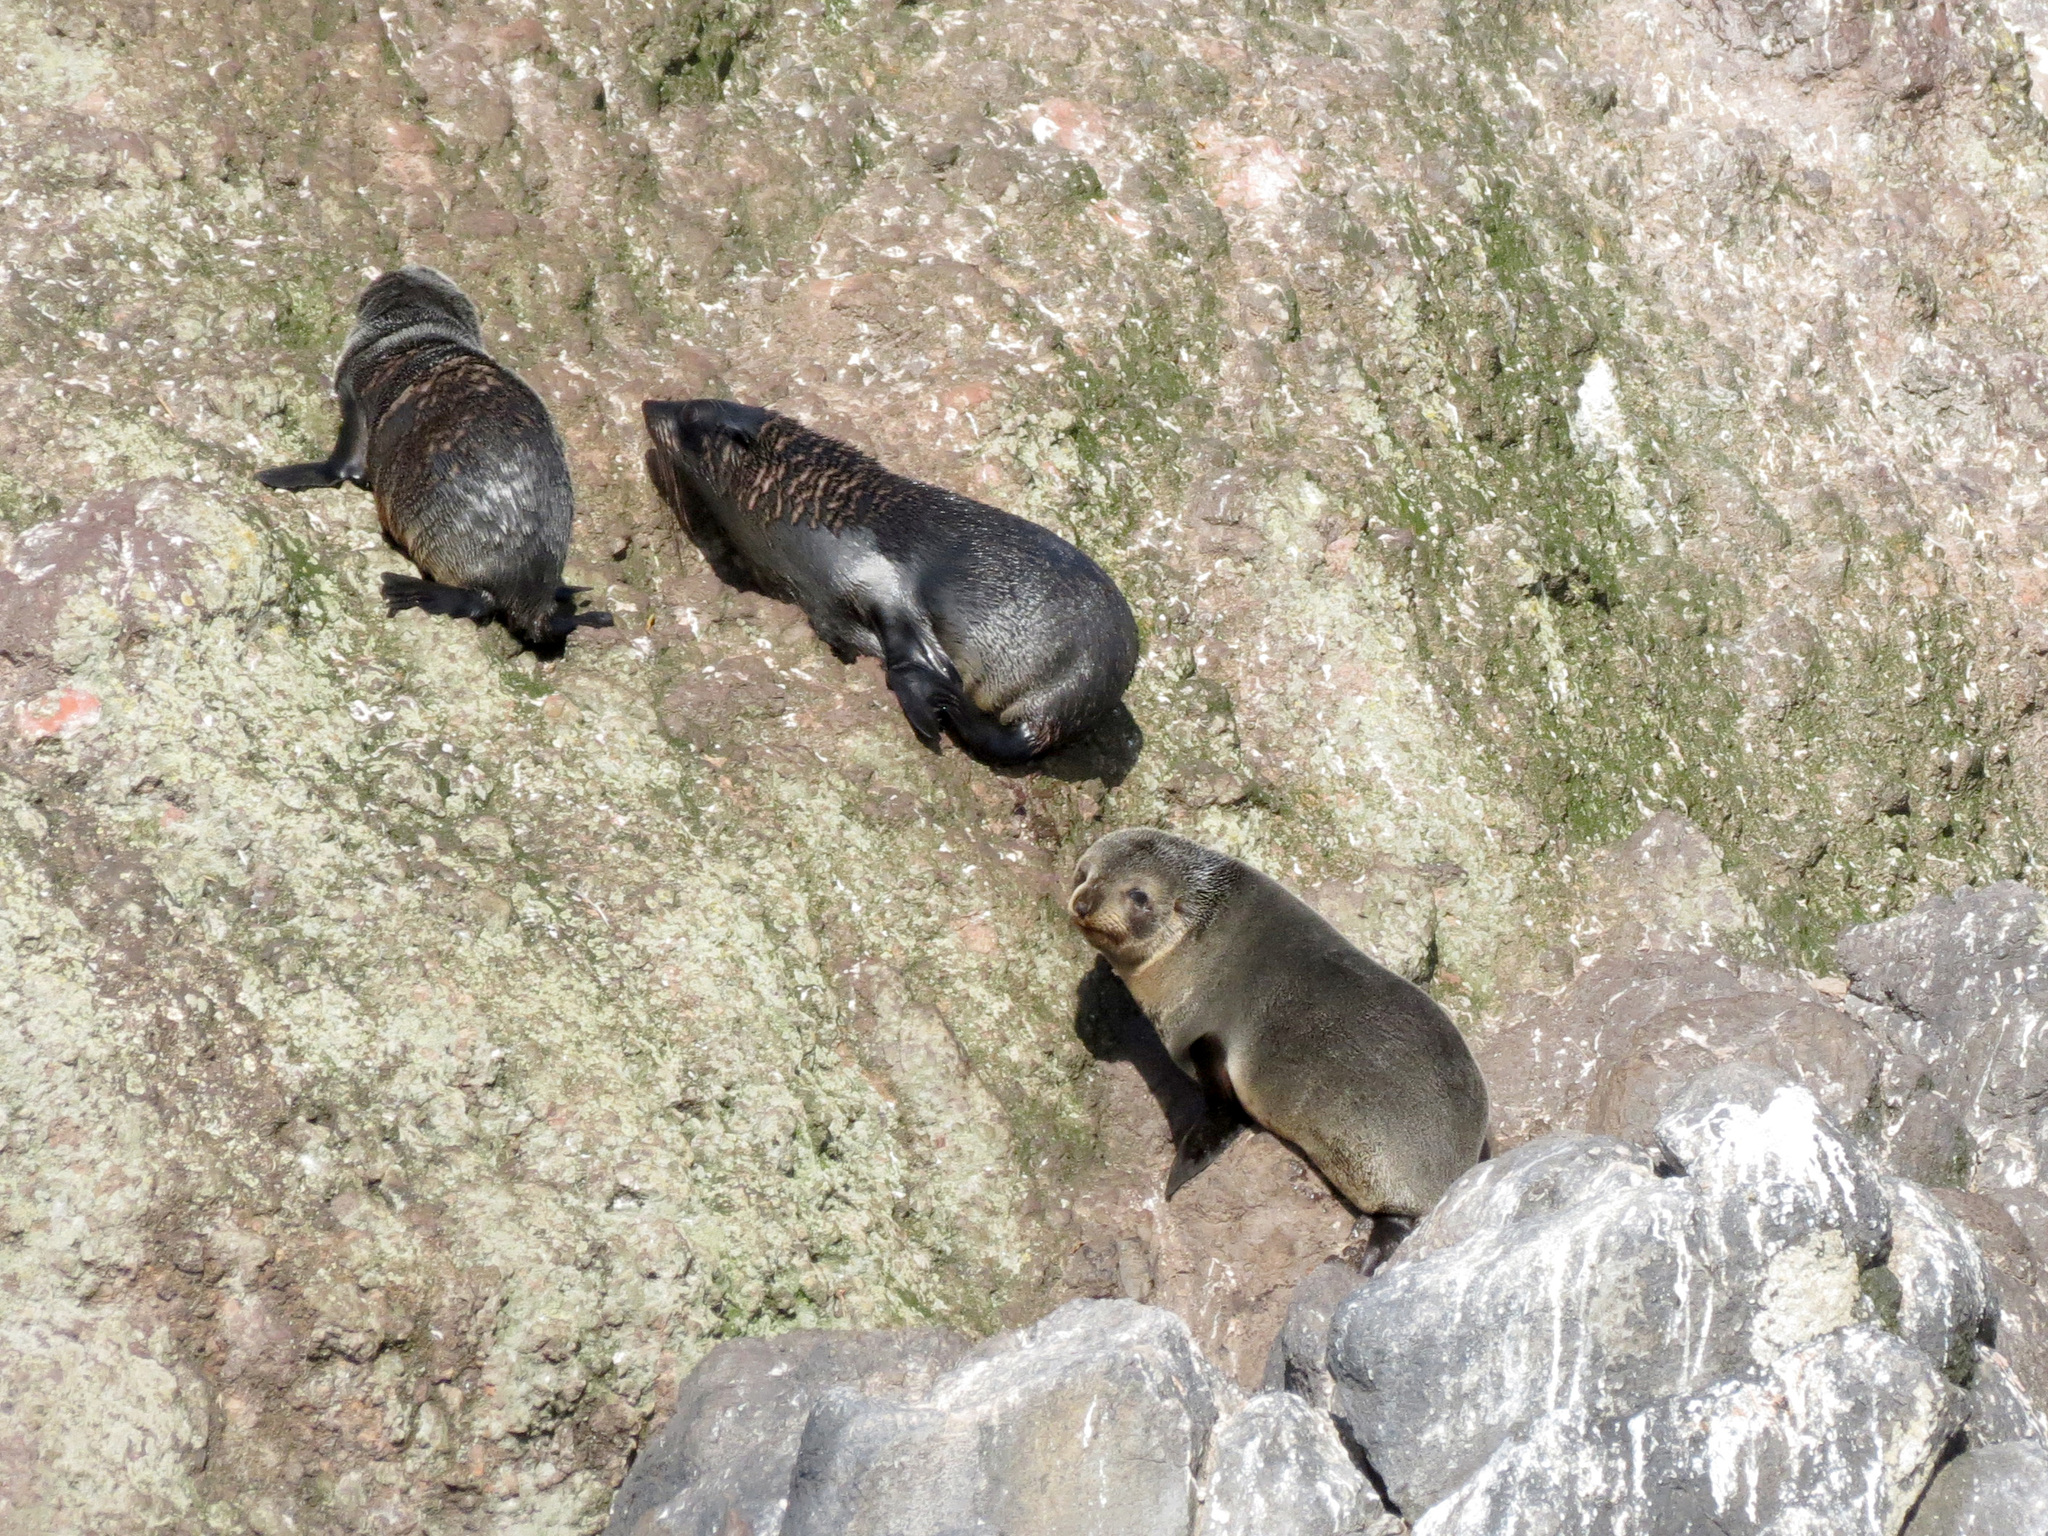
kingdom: Animalia
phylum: Chordata
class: Mammalia
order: Carnivora
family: Otariidae
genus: Arctocephalus
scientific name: Arctocephalus forsteri
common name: New zealand fur seal
